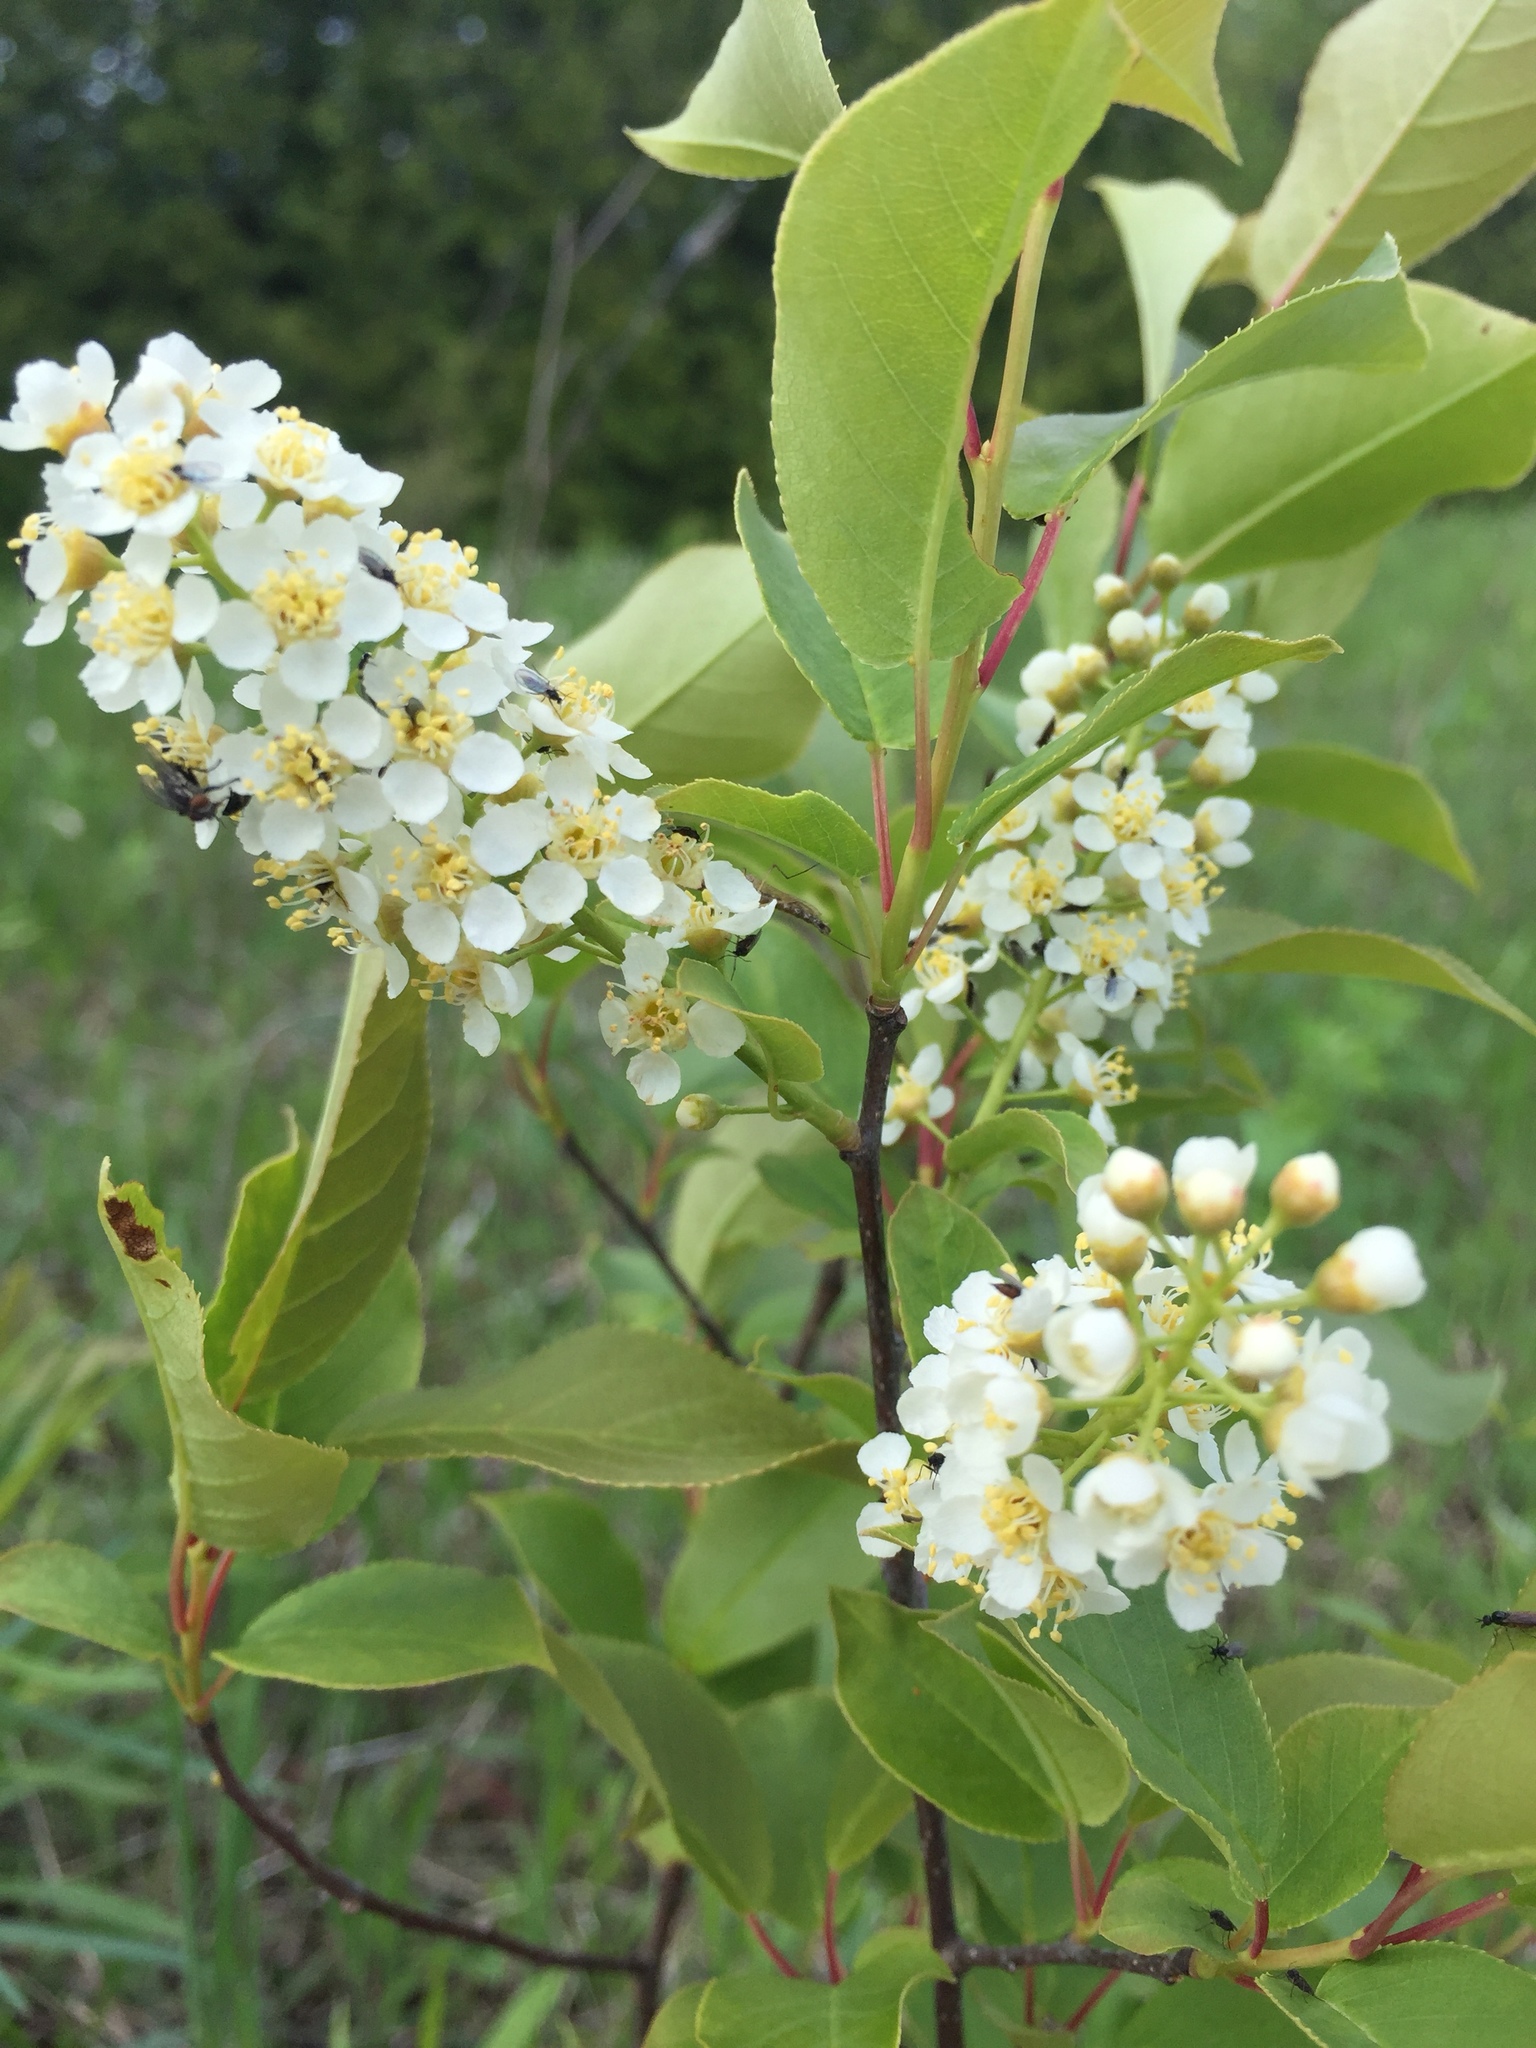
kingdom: Plantae
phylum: Tracheophyta
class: Magnoliopsida
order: Rosales
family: Rosaceae
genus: Prunus
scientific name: Prunus virginiana
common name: Chokecherry
